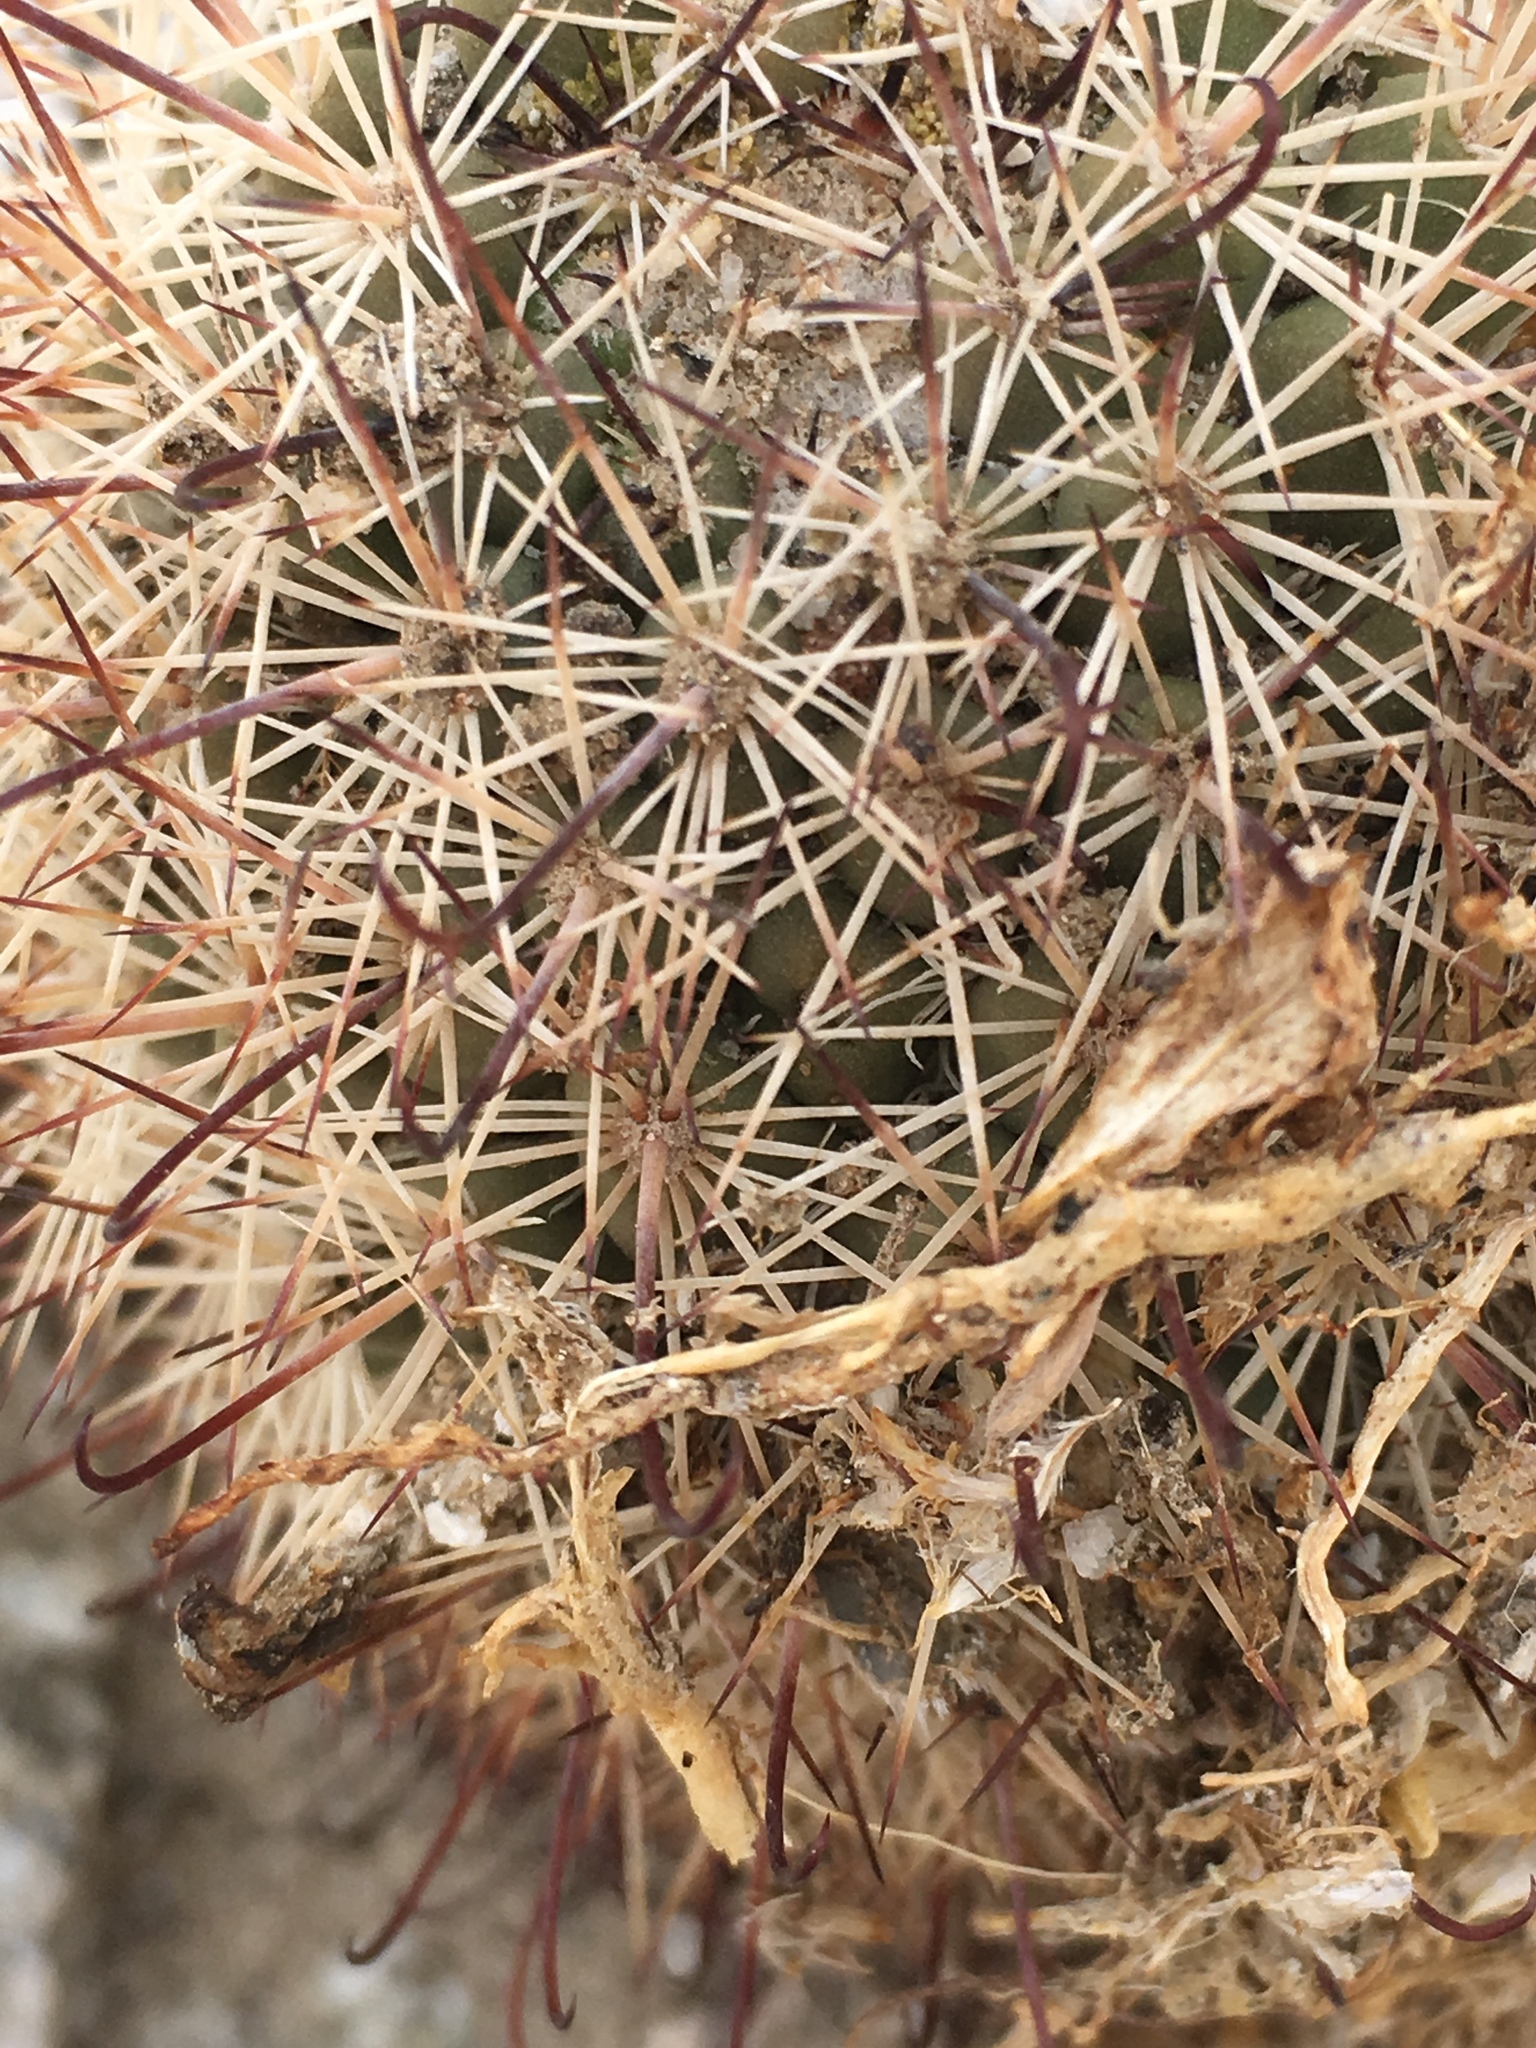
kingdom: Plantae
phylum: Tracheophyta
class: Magnoliopsida
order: Caryophyllales
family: Cactaceae
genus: Cochemiea
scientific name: Cochemiea dioica
